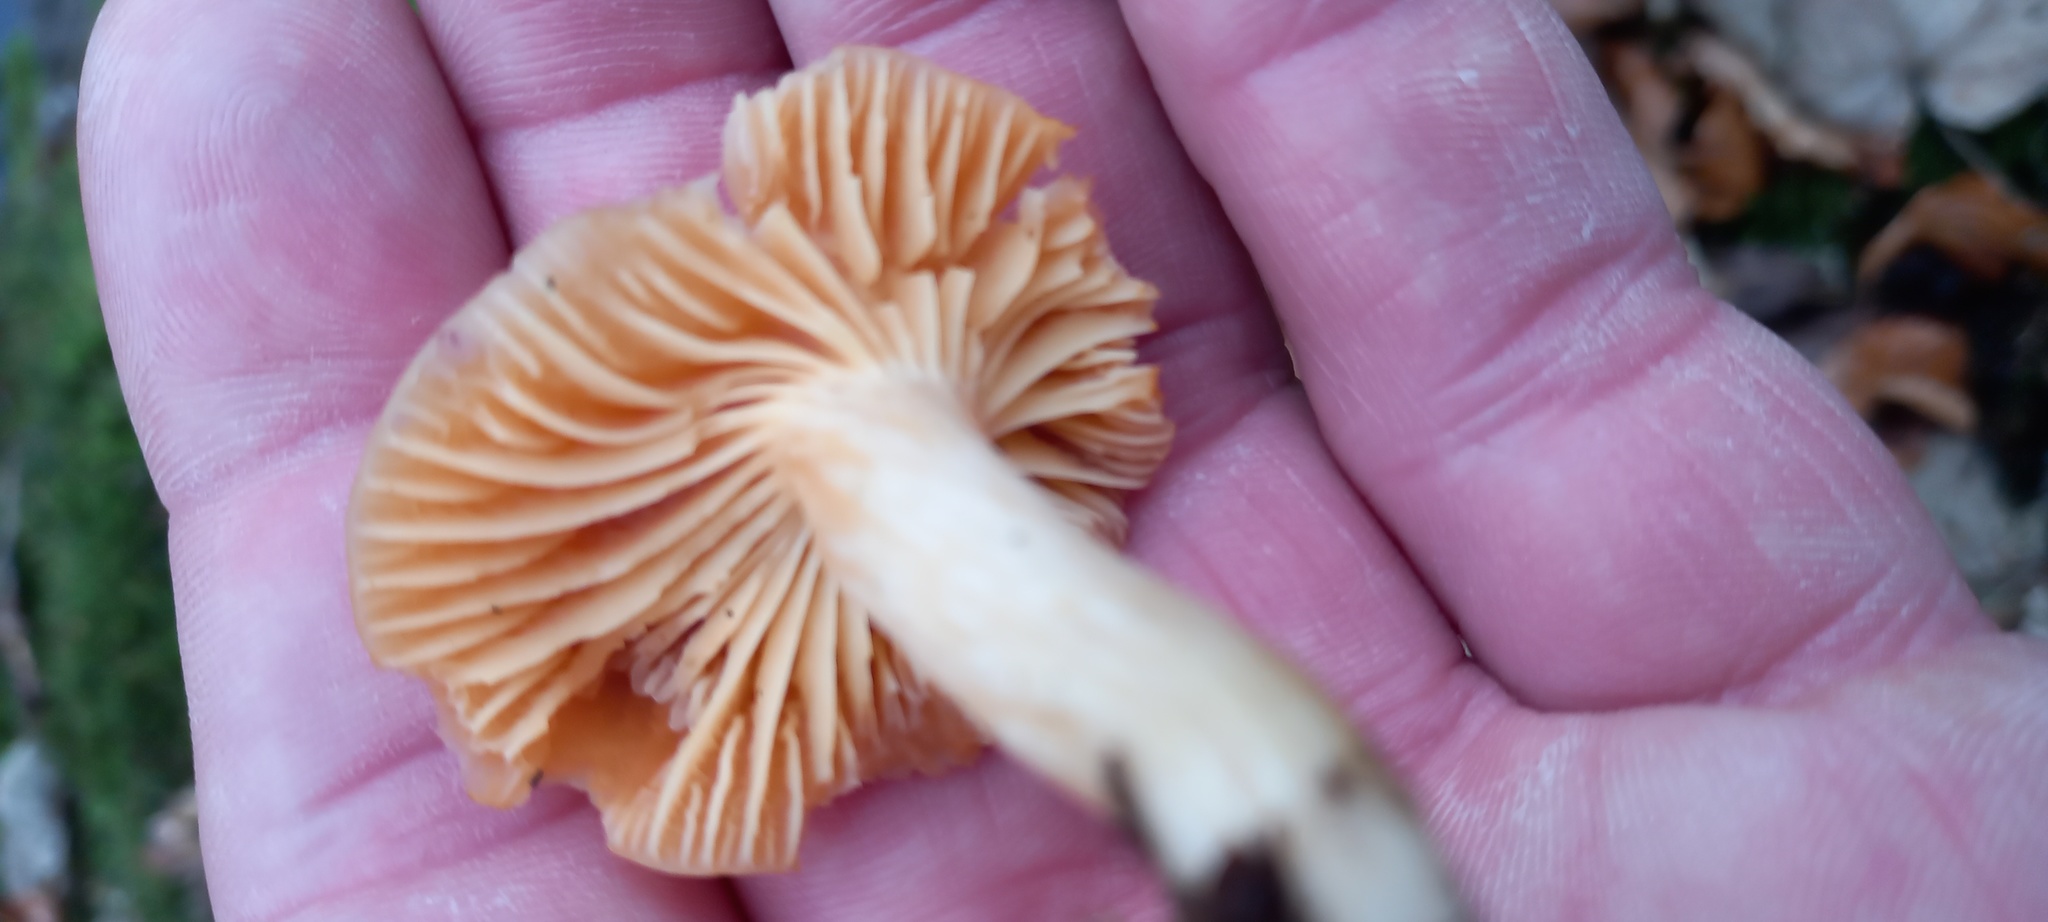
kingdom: Fungi
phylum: Basidiomycota
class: Agaricomycetes
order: Agaricales
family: Hygrophoraceae
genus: Cuphophyllus
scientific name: Cuphophyllus pratensis
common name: Meadow waxcap
